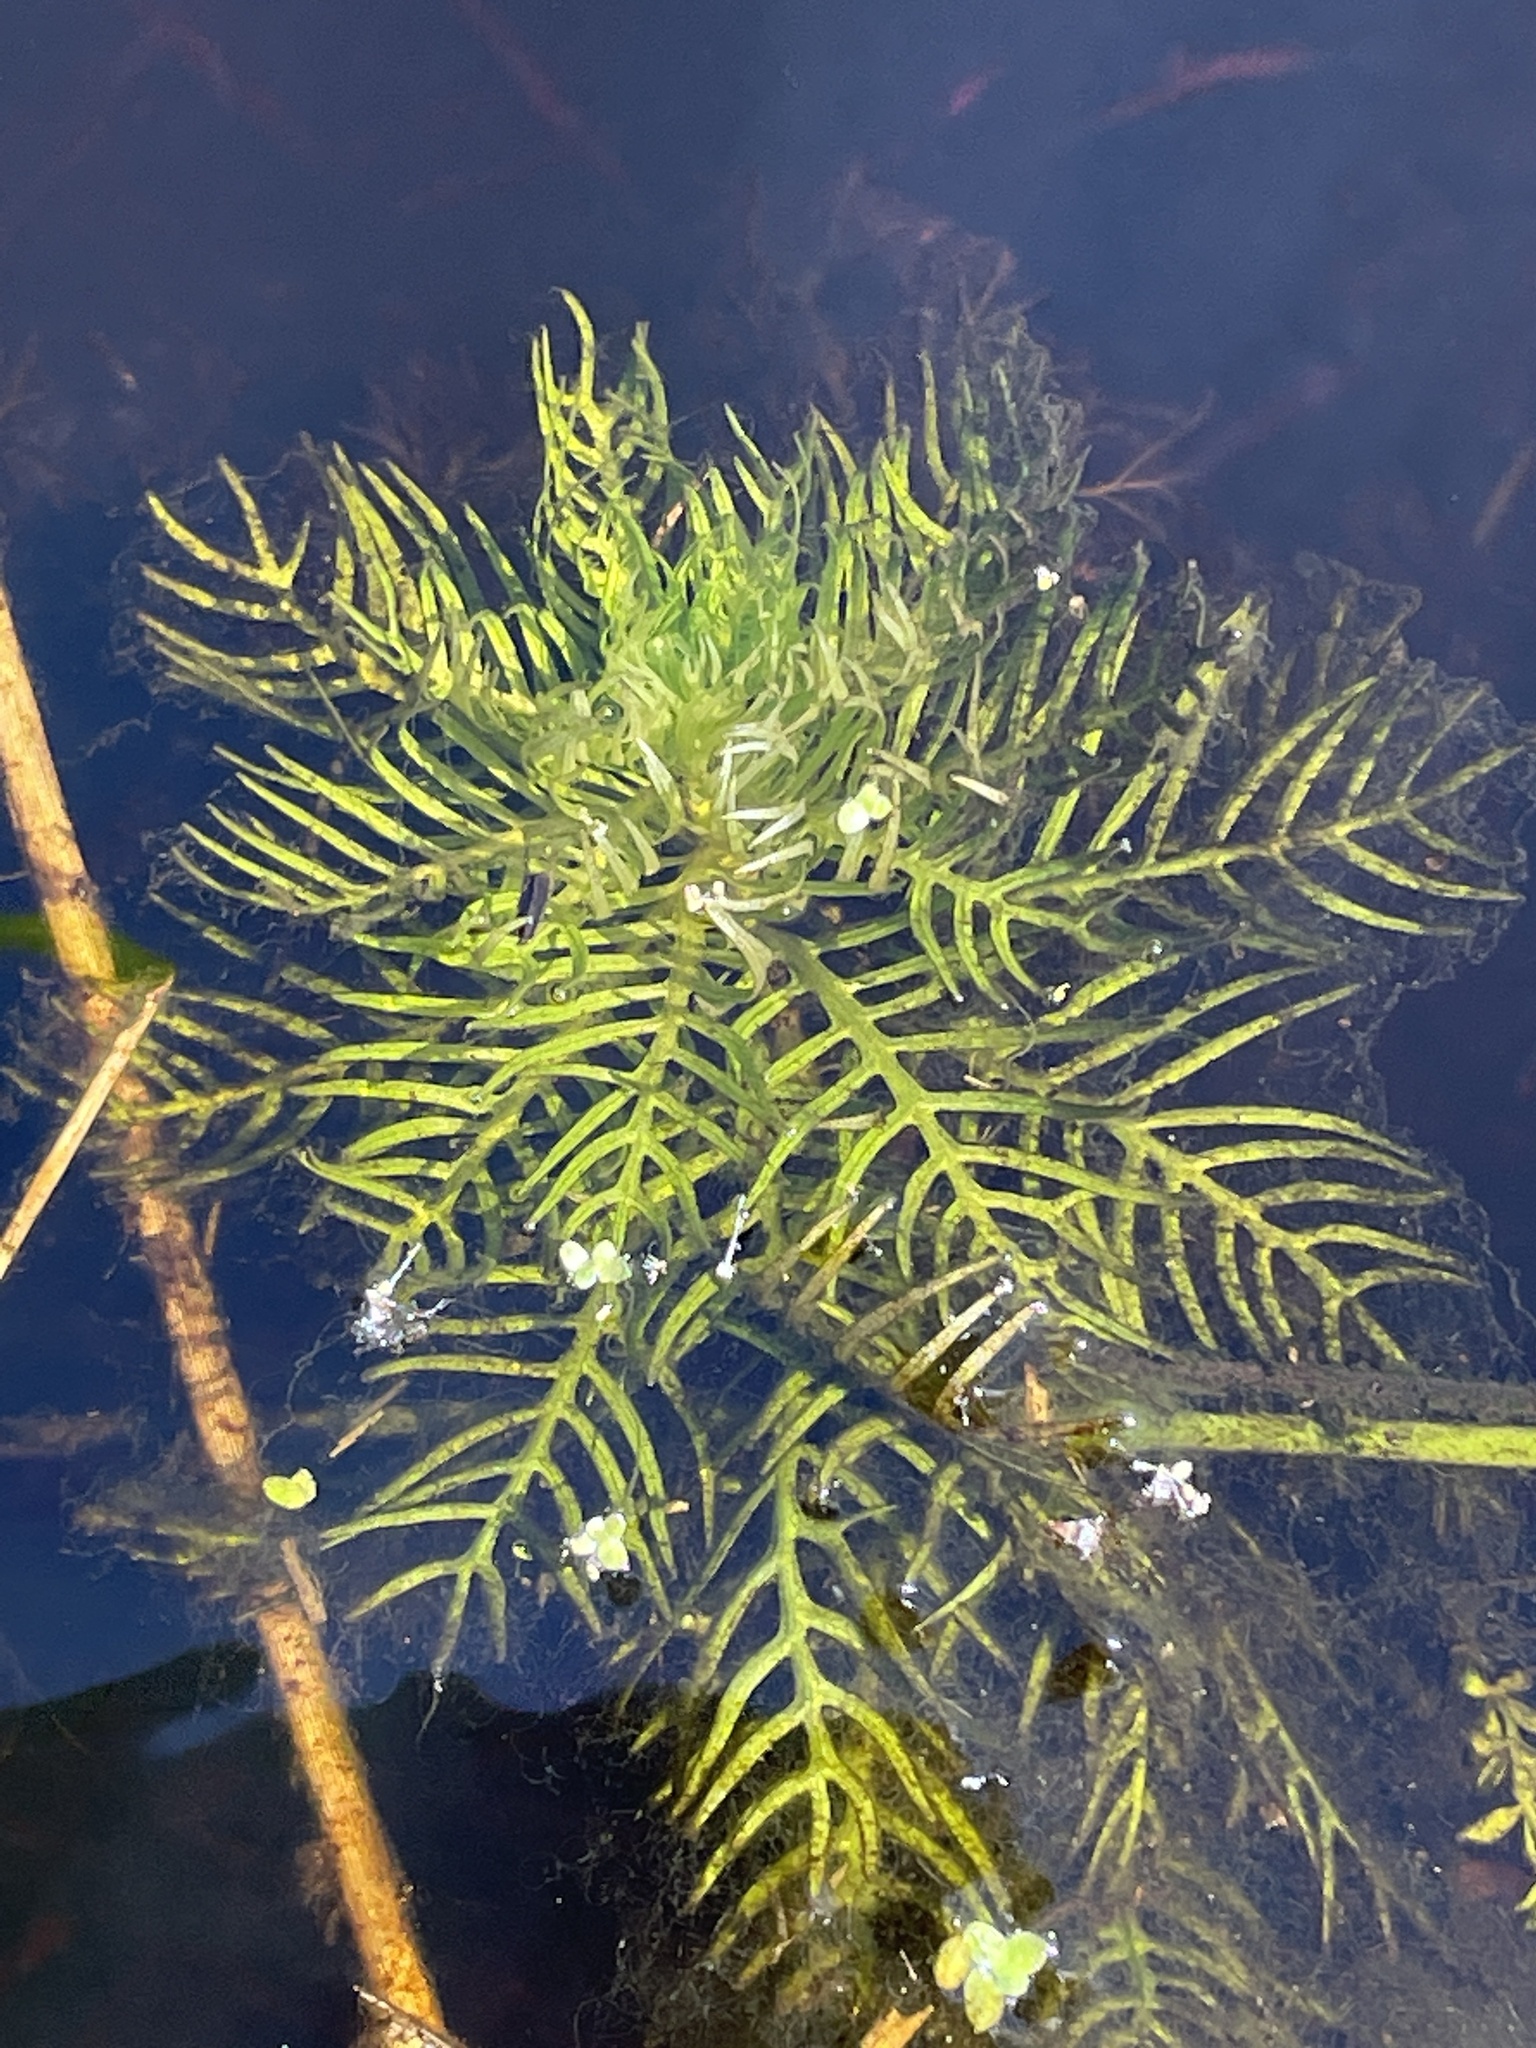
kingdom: Plantae
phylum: Tracheophyta
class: Magnoliopsida
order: Ericales
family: Primulaceae
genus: Hottonia
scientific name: Hottonia palustris
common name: Water-violet
